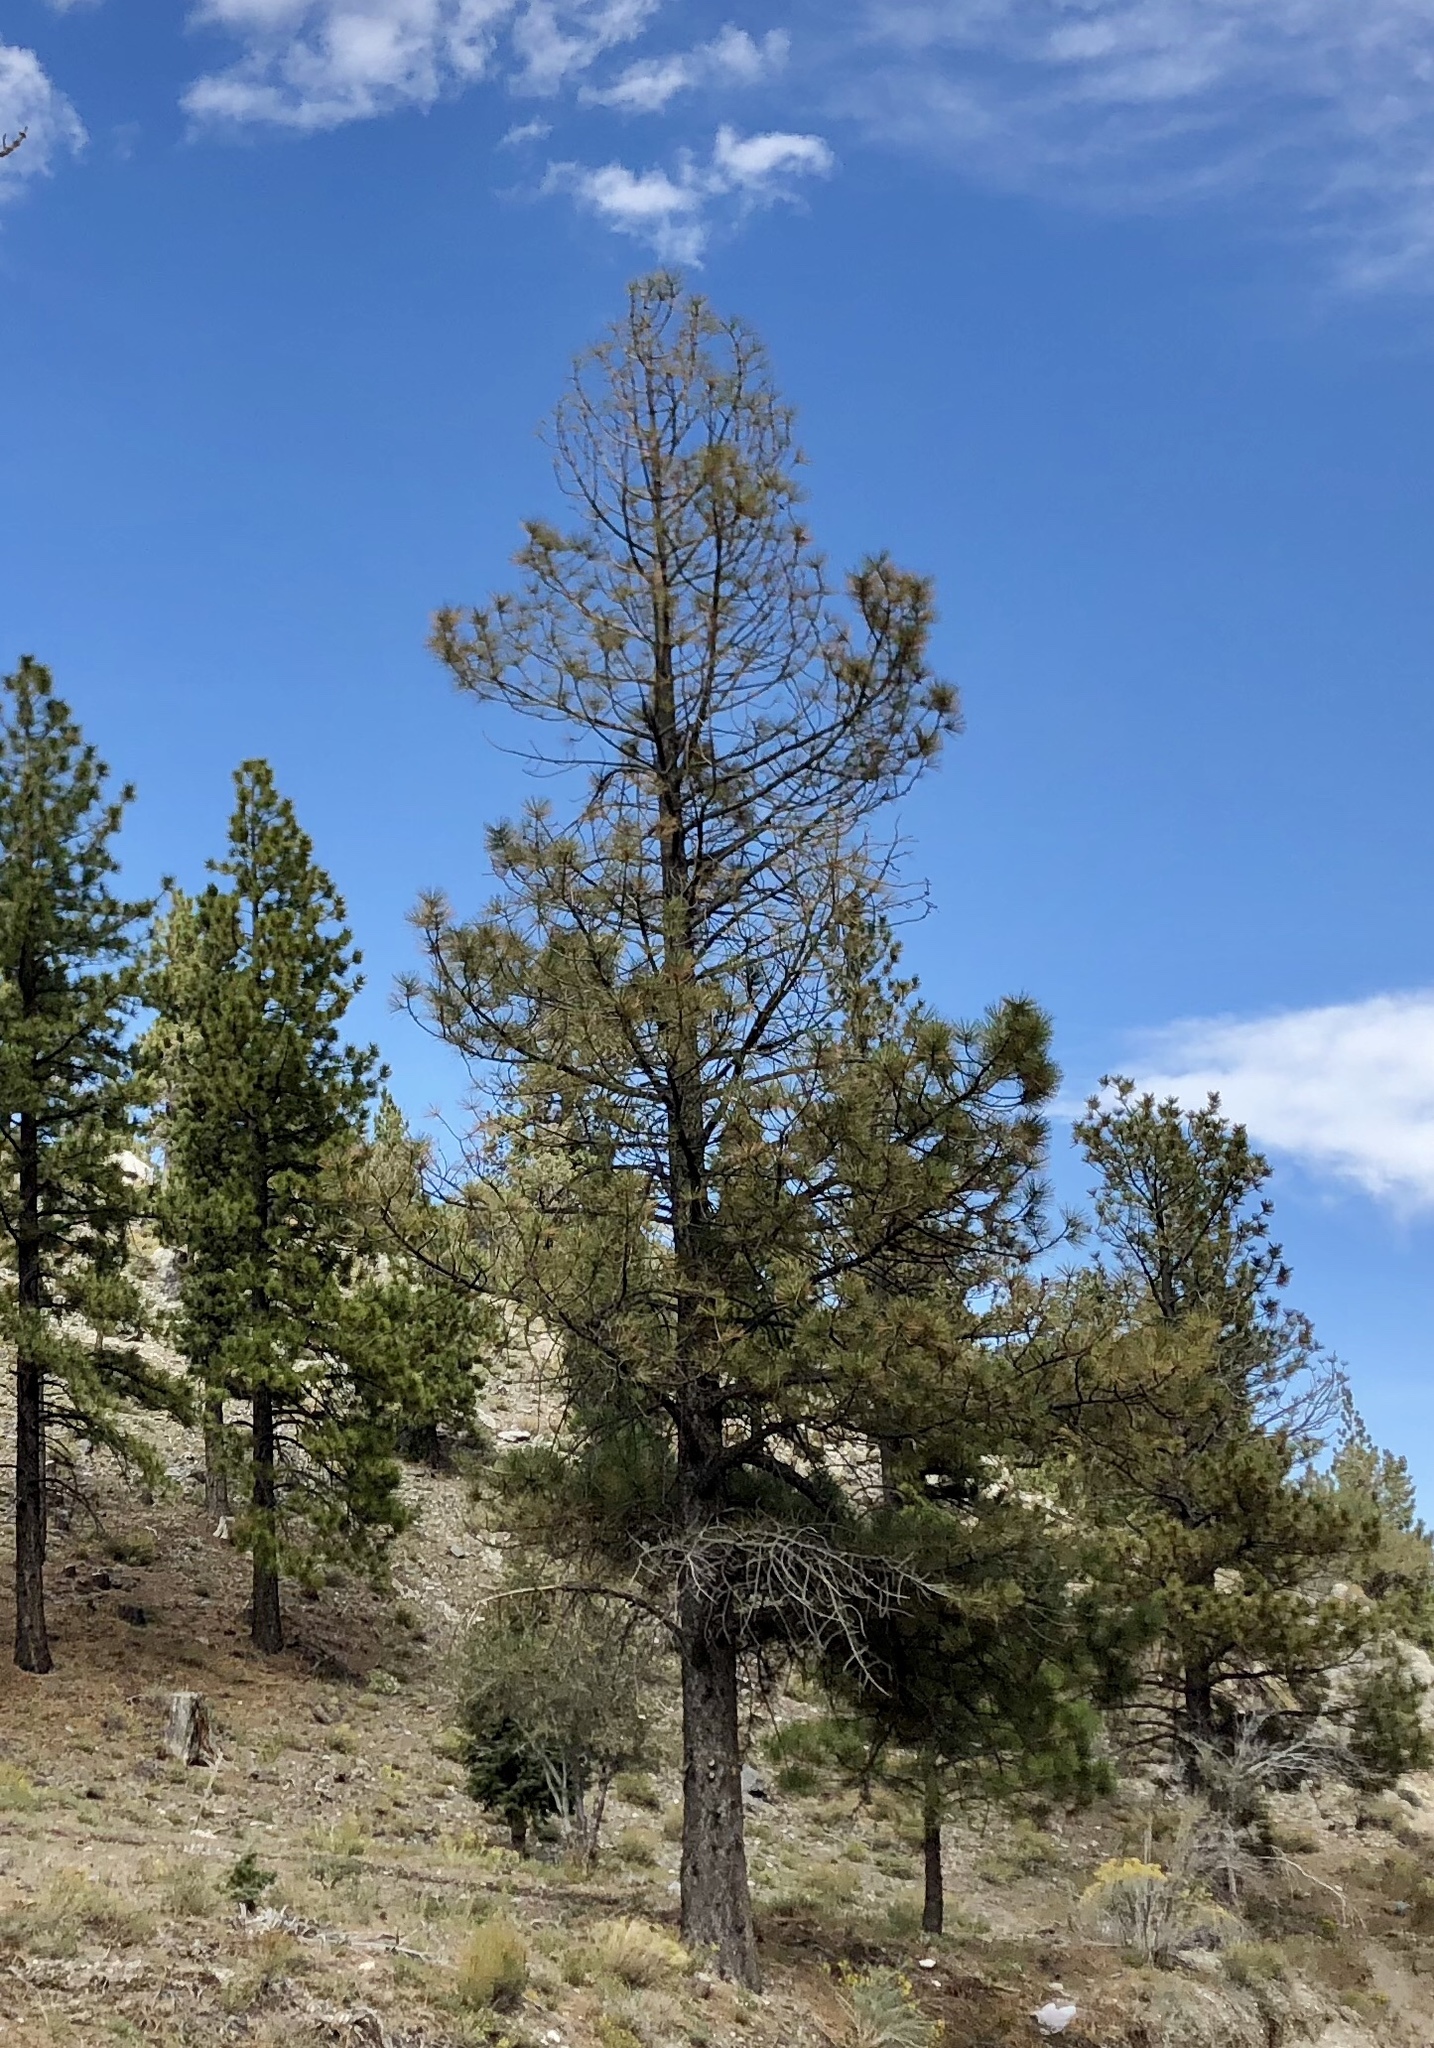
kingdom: Plantae
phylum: Tracheophyta
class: Pinopsida
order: Pinales
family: Pinaceae
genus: Pinus
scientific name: Pinus ponderosa
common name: Western yellow-pine
